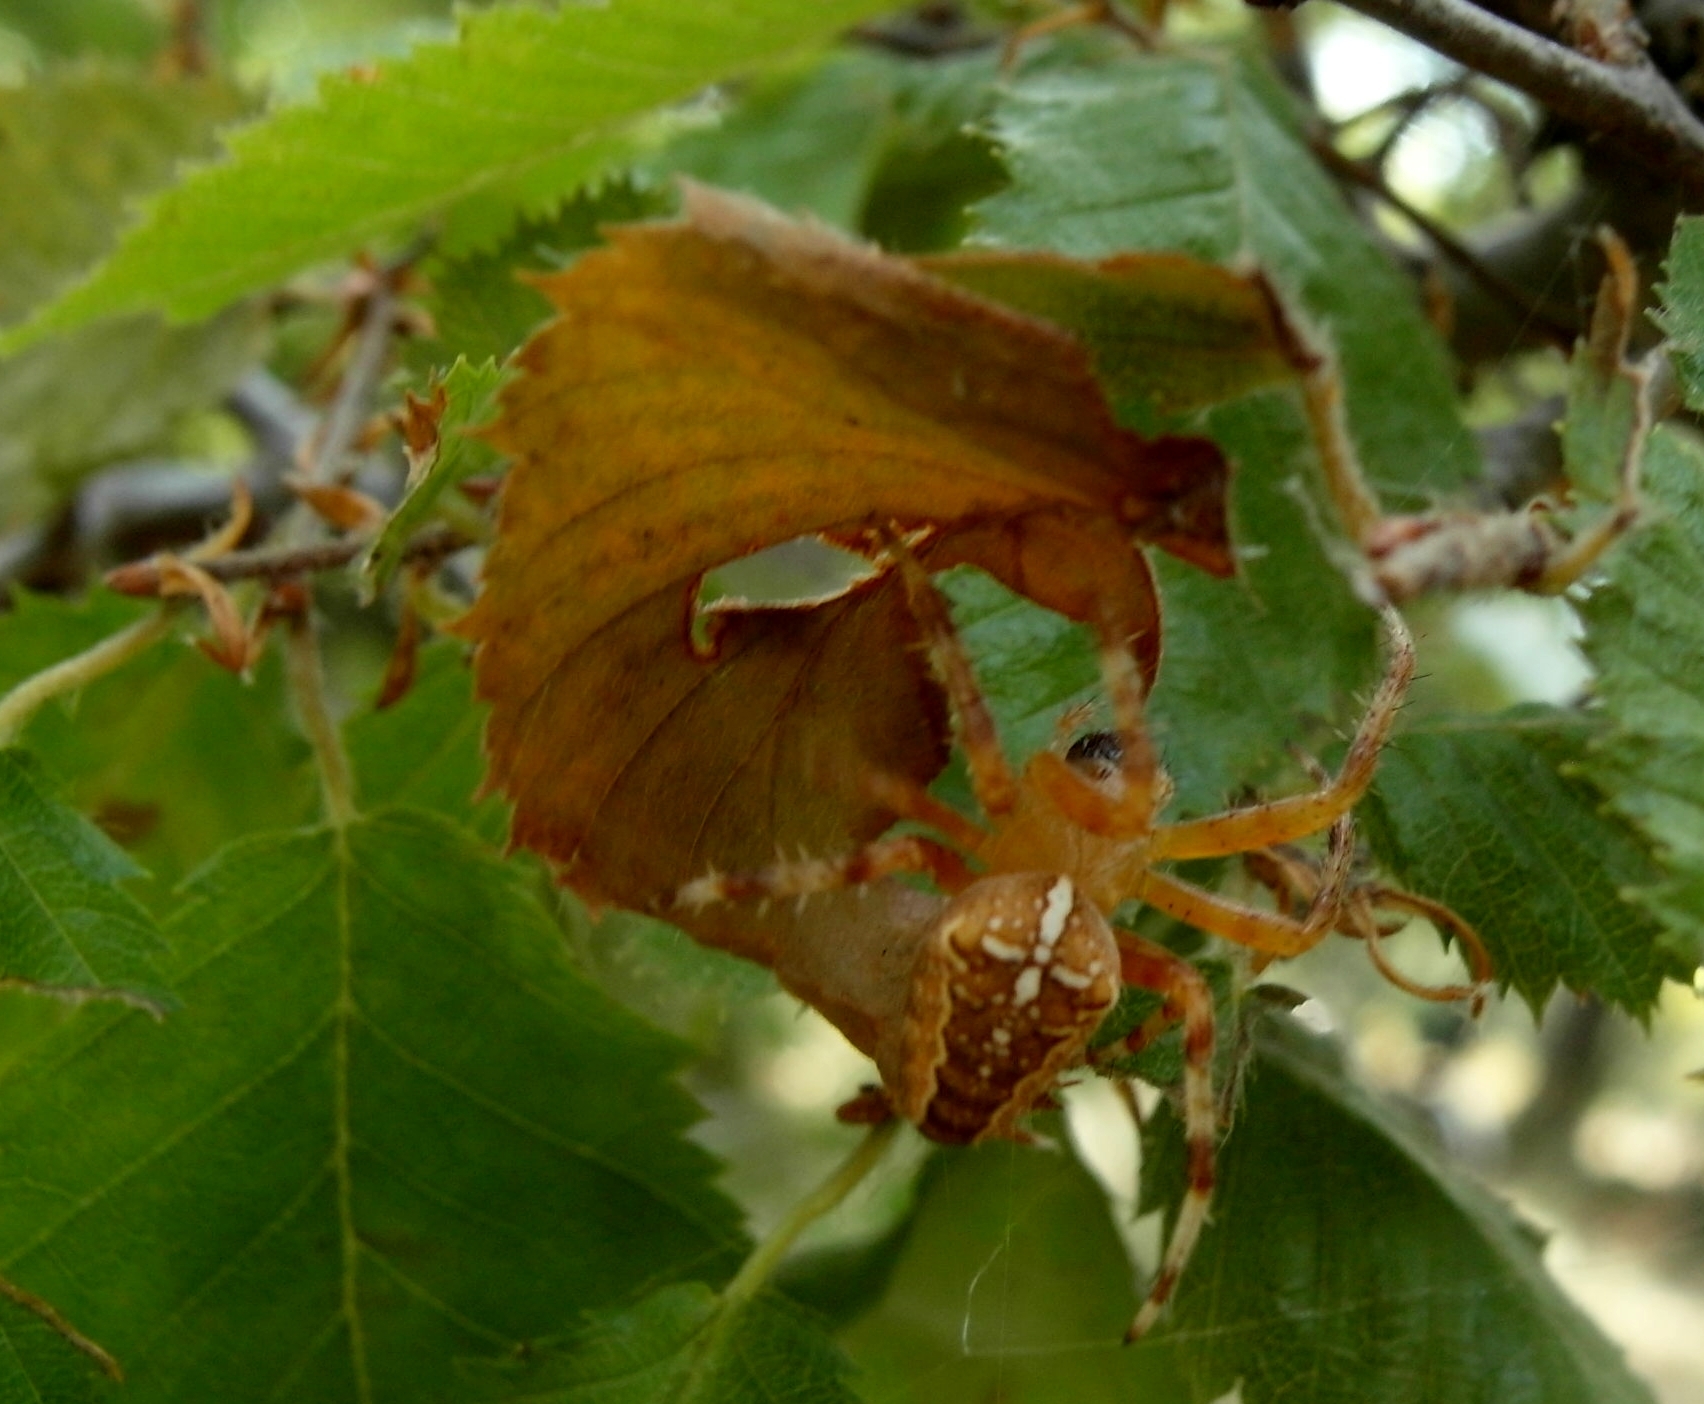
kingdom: Animalia
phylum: Arthropoda
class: Arachnida
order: Araneae
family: Araneidae
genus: Araneus
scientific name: Araneus diadematus
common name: Cross orbweaver
